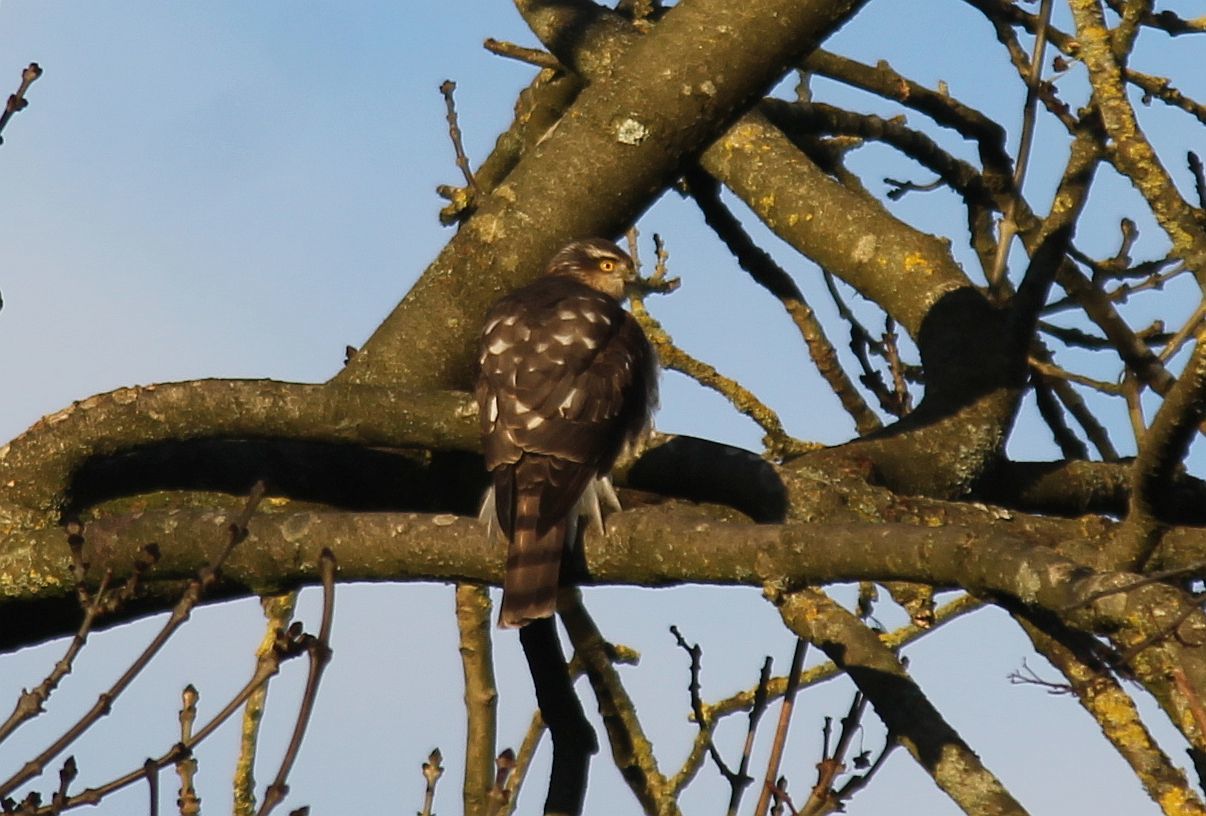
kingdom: Animalia
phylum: Chordata
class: Aves
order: Accipitriformes
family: Accipitridae
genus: Accipiter
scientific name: Accipiter nisus
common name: Eurasian sparrowhawk
